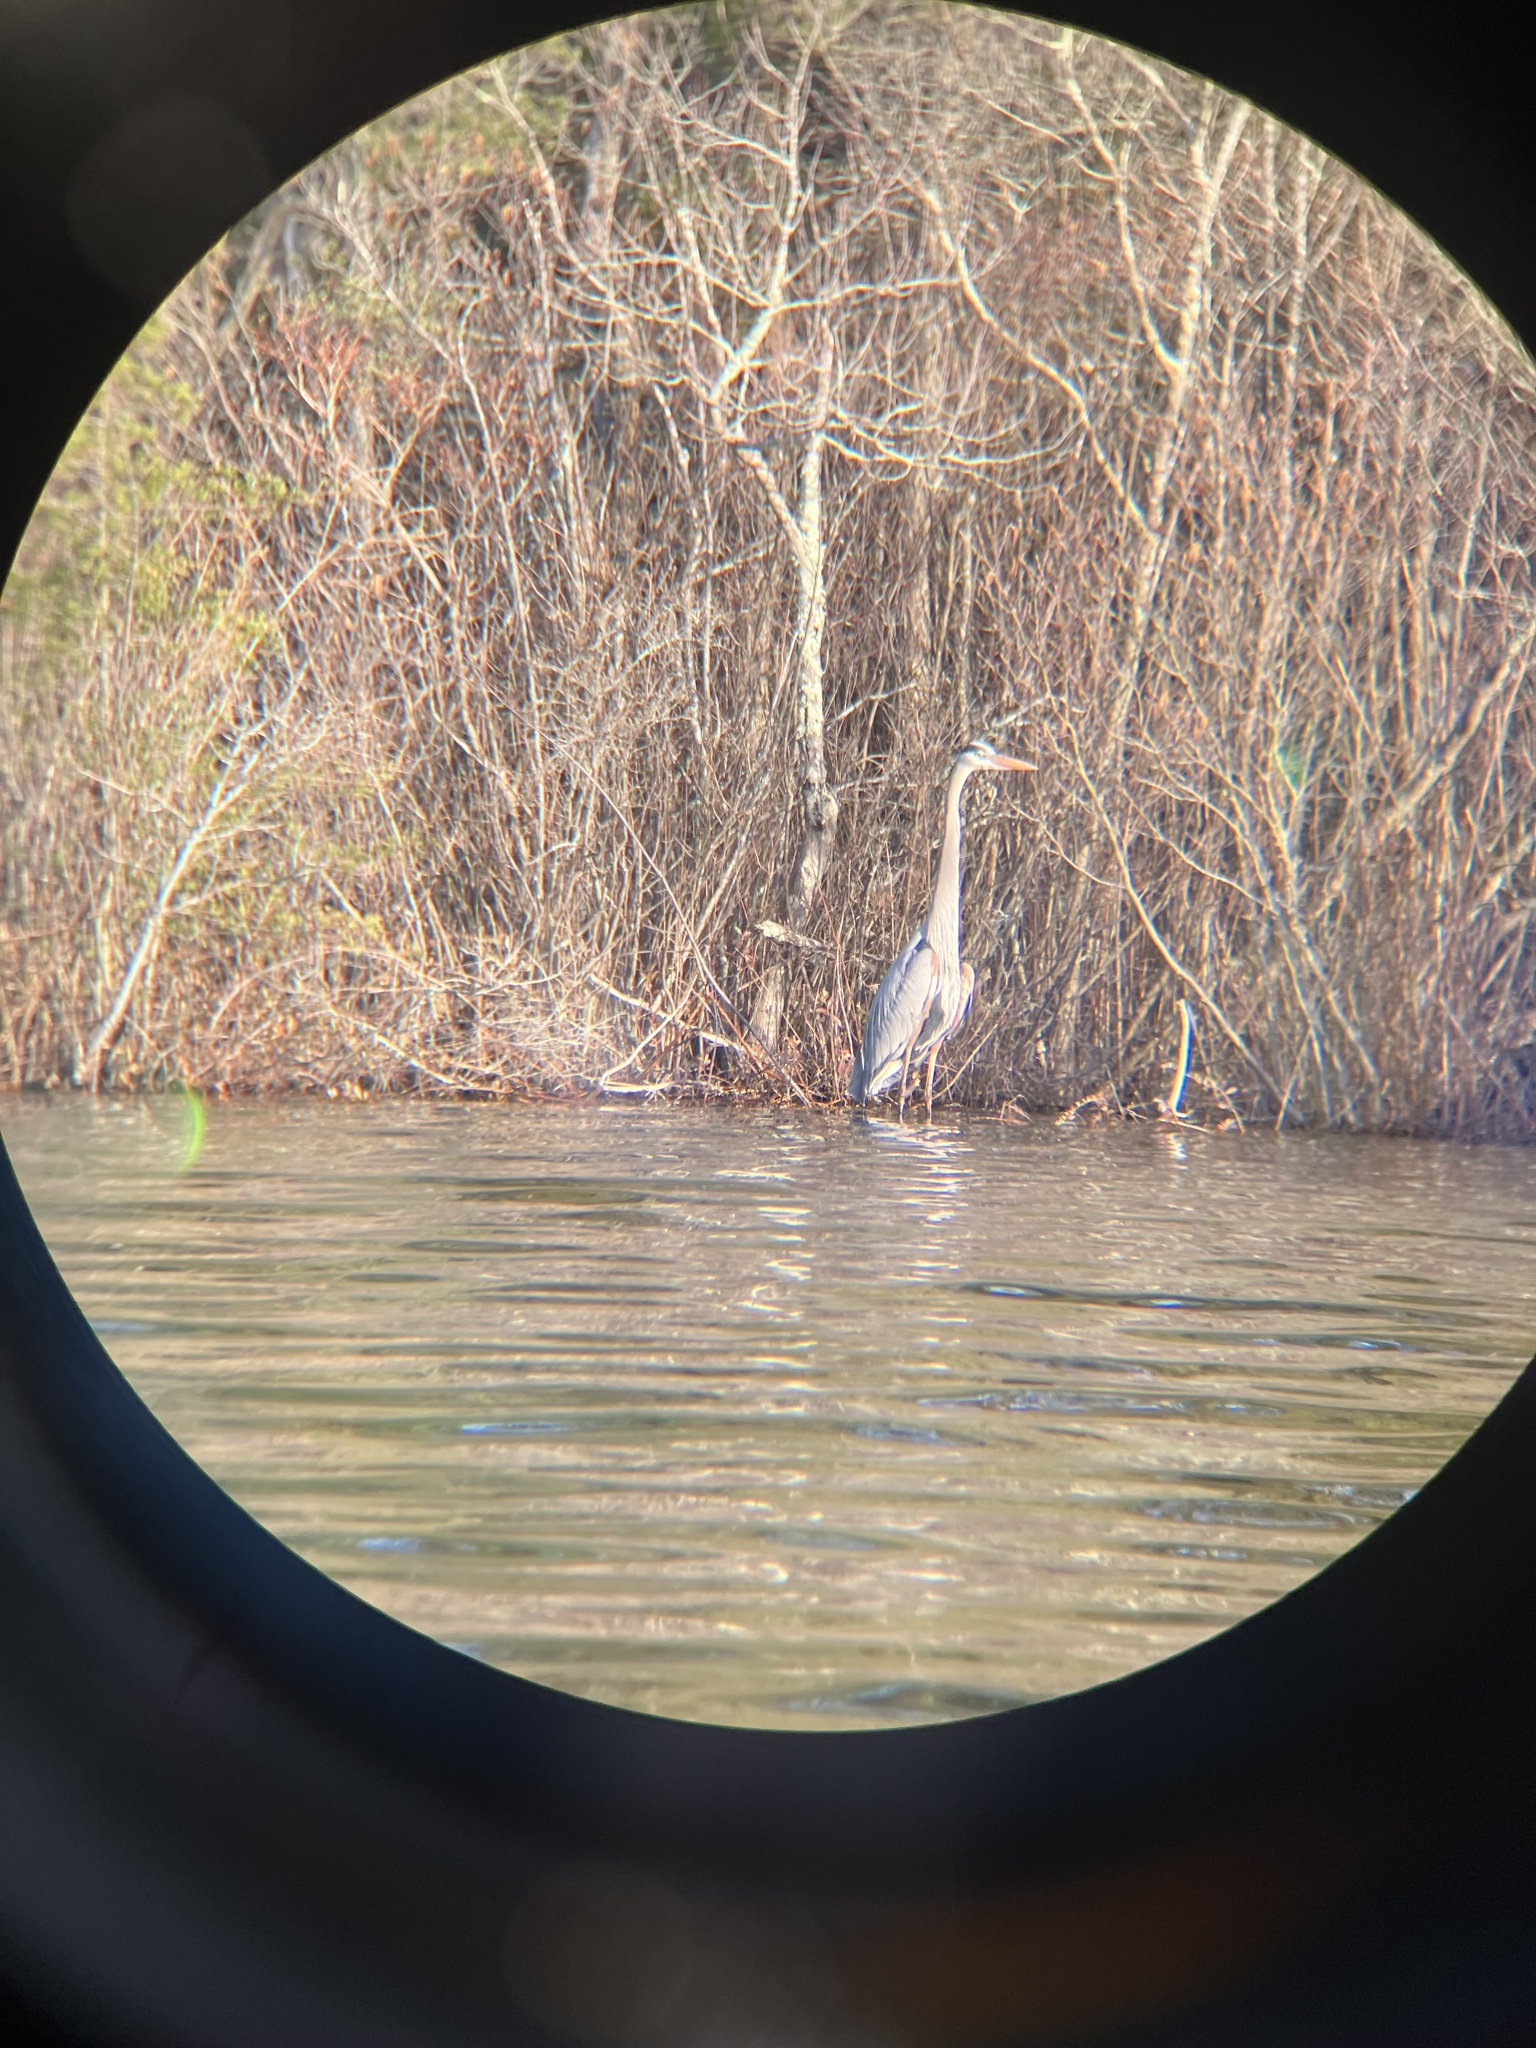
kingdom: Animalia
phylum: Chordata
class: Aves
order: Pelecaniformes
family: Ardeidae
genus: Ardea
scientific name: Ardea herodias
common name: Great blue heron
